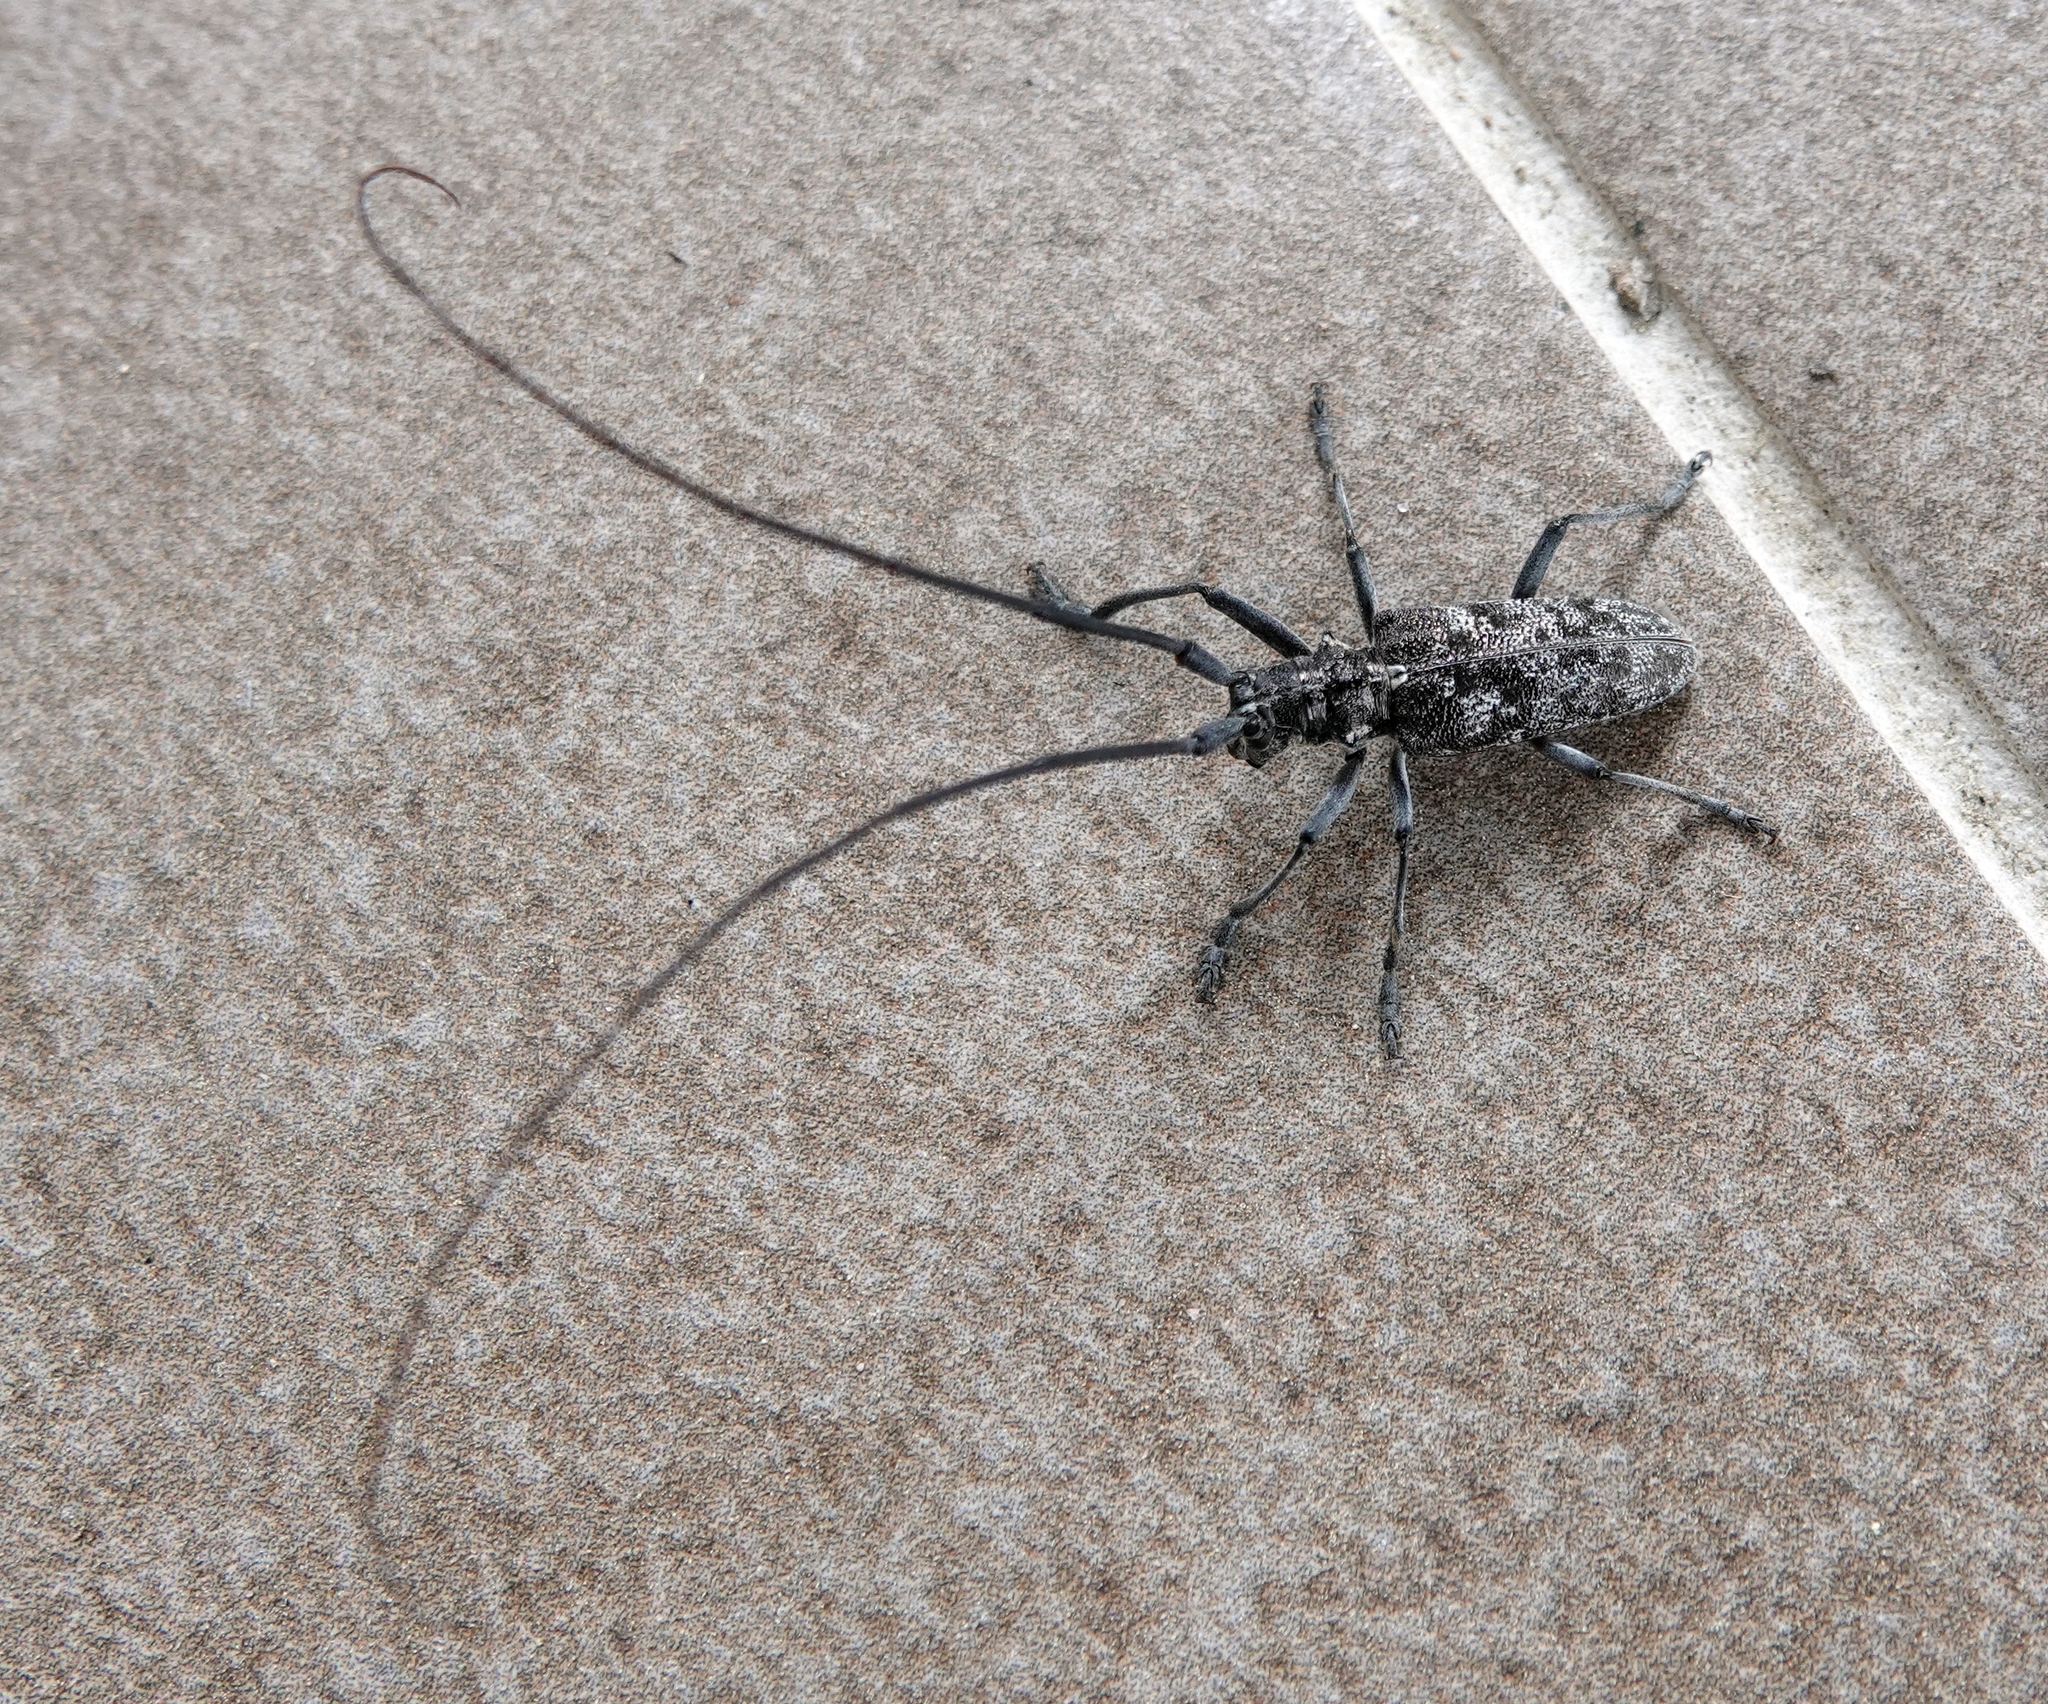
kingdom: Animalia
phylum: Arthropoda
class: Insecta
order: Coleoptera
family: Cerambycidae
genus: Monochamus
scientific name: Monochamus clamator
